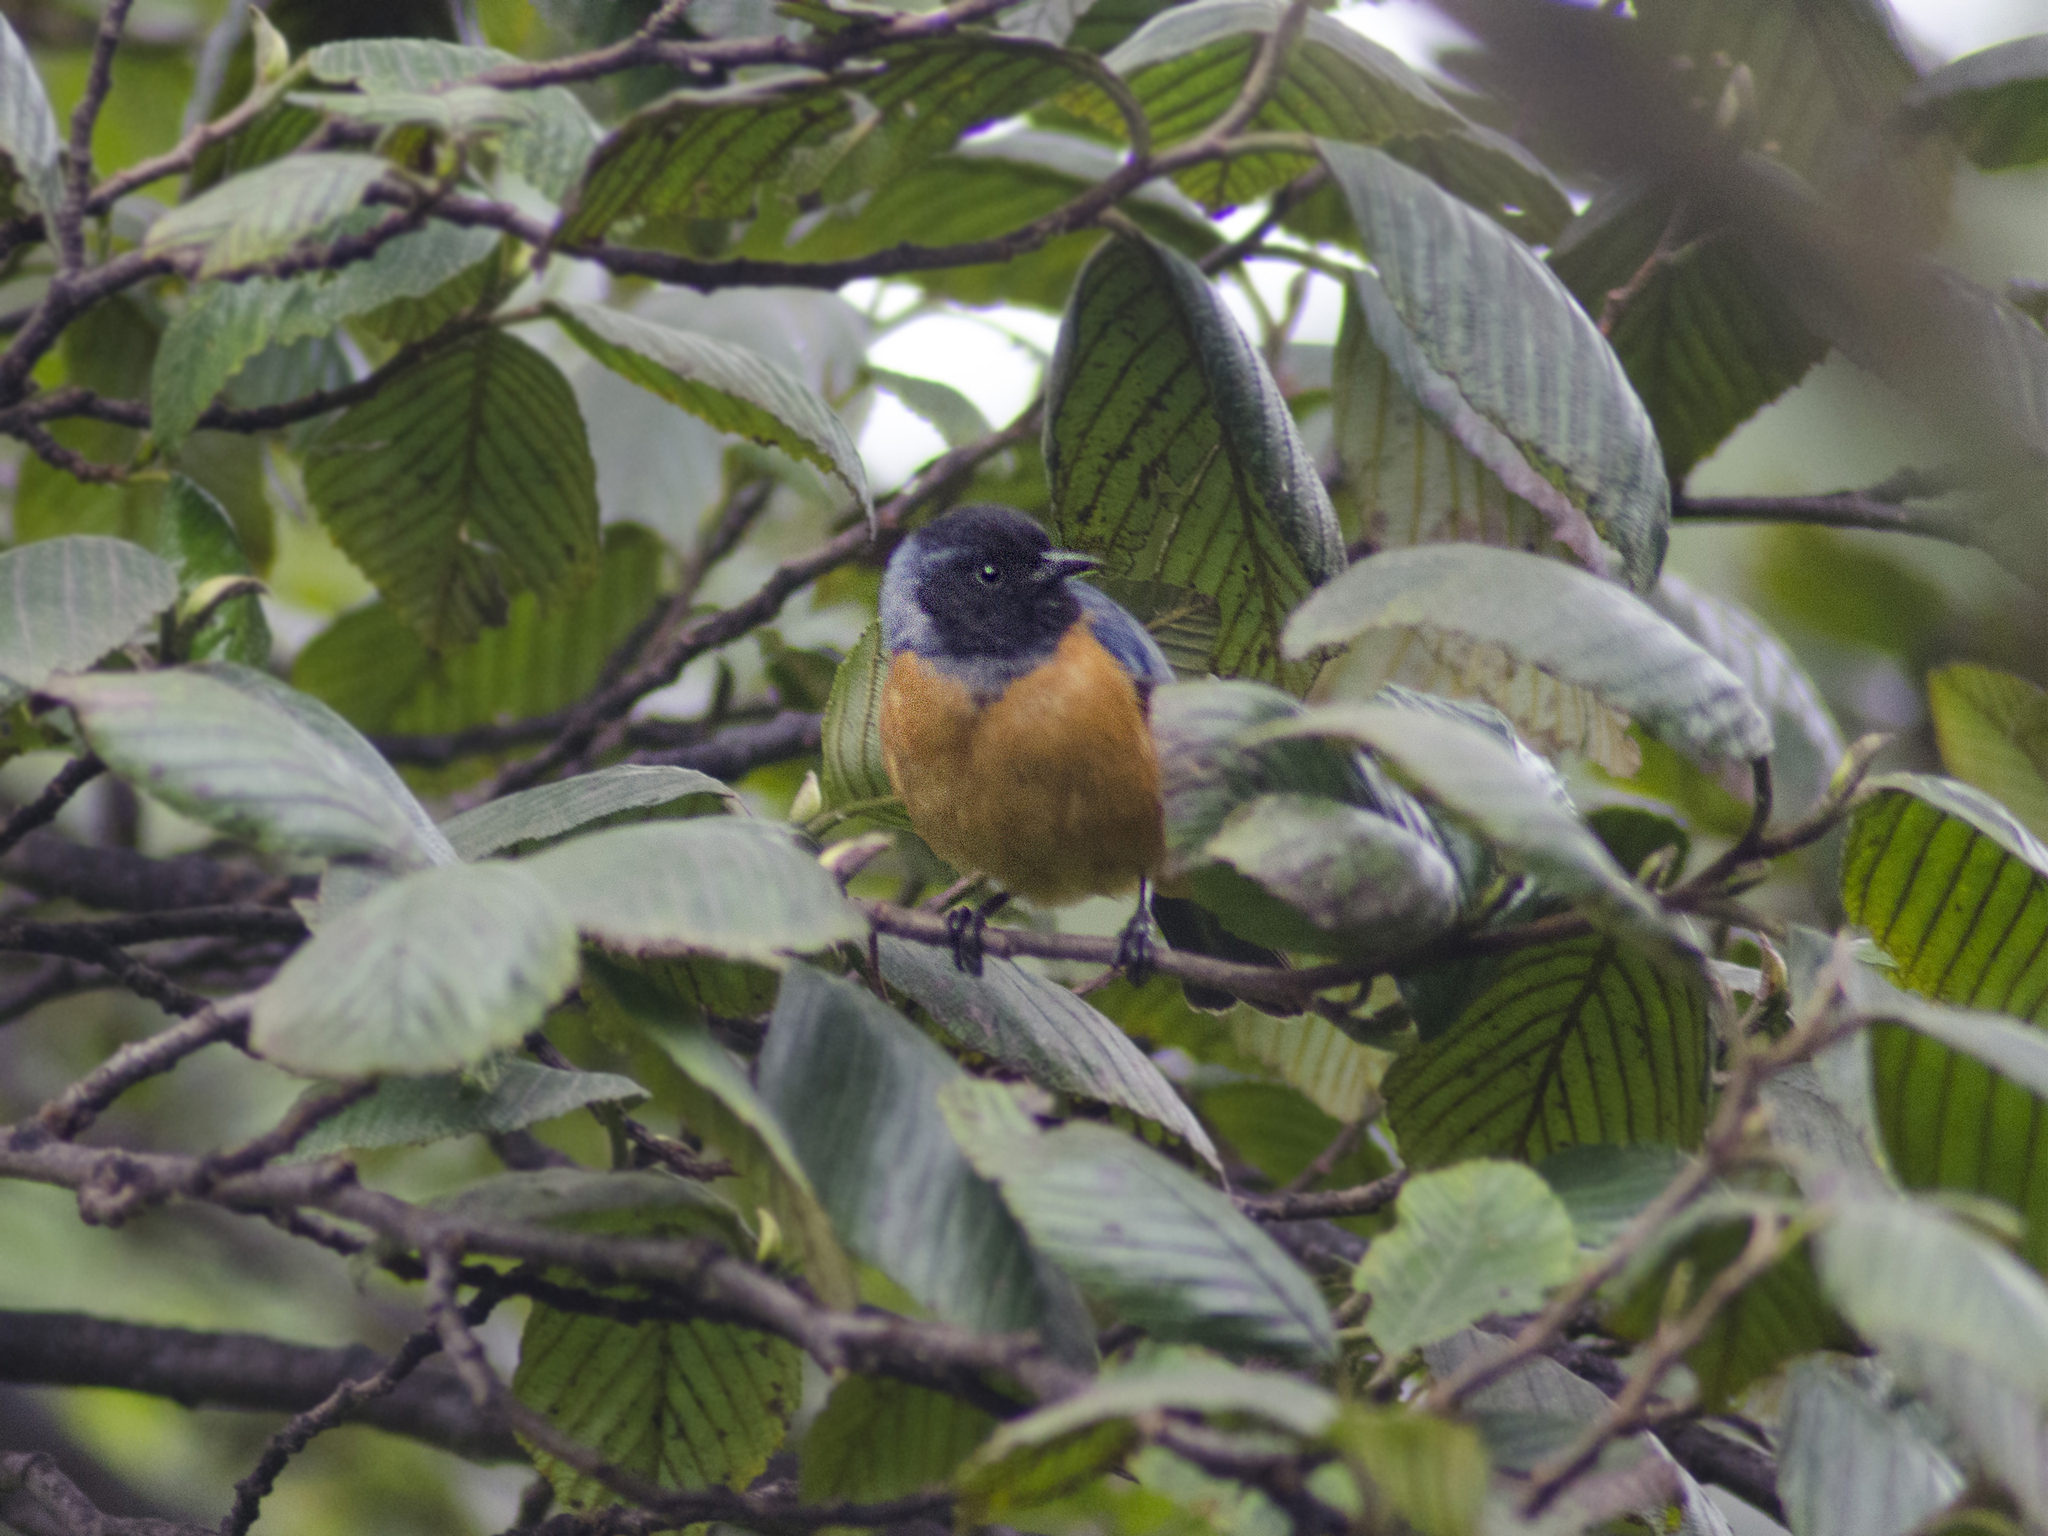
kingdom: Animalia
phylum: Chordata
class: Aves
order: Passeriformes
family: Thraupidae
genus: Conirostrum
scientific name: Conirostrum sitticolor
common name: Blue-backed conebill
